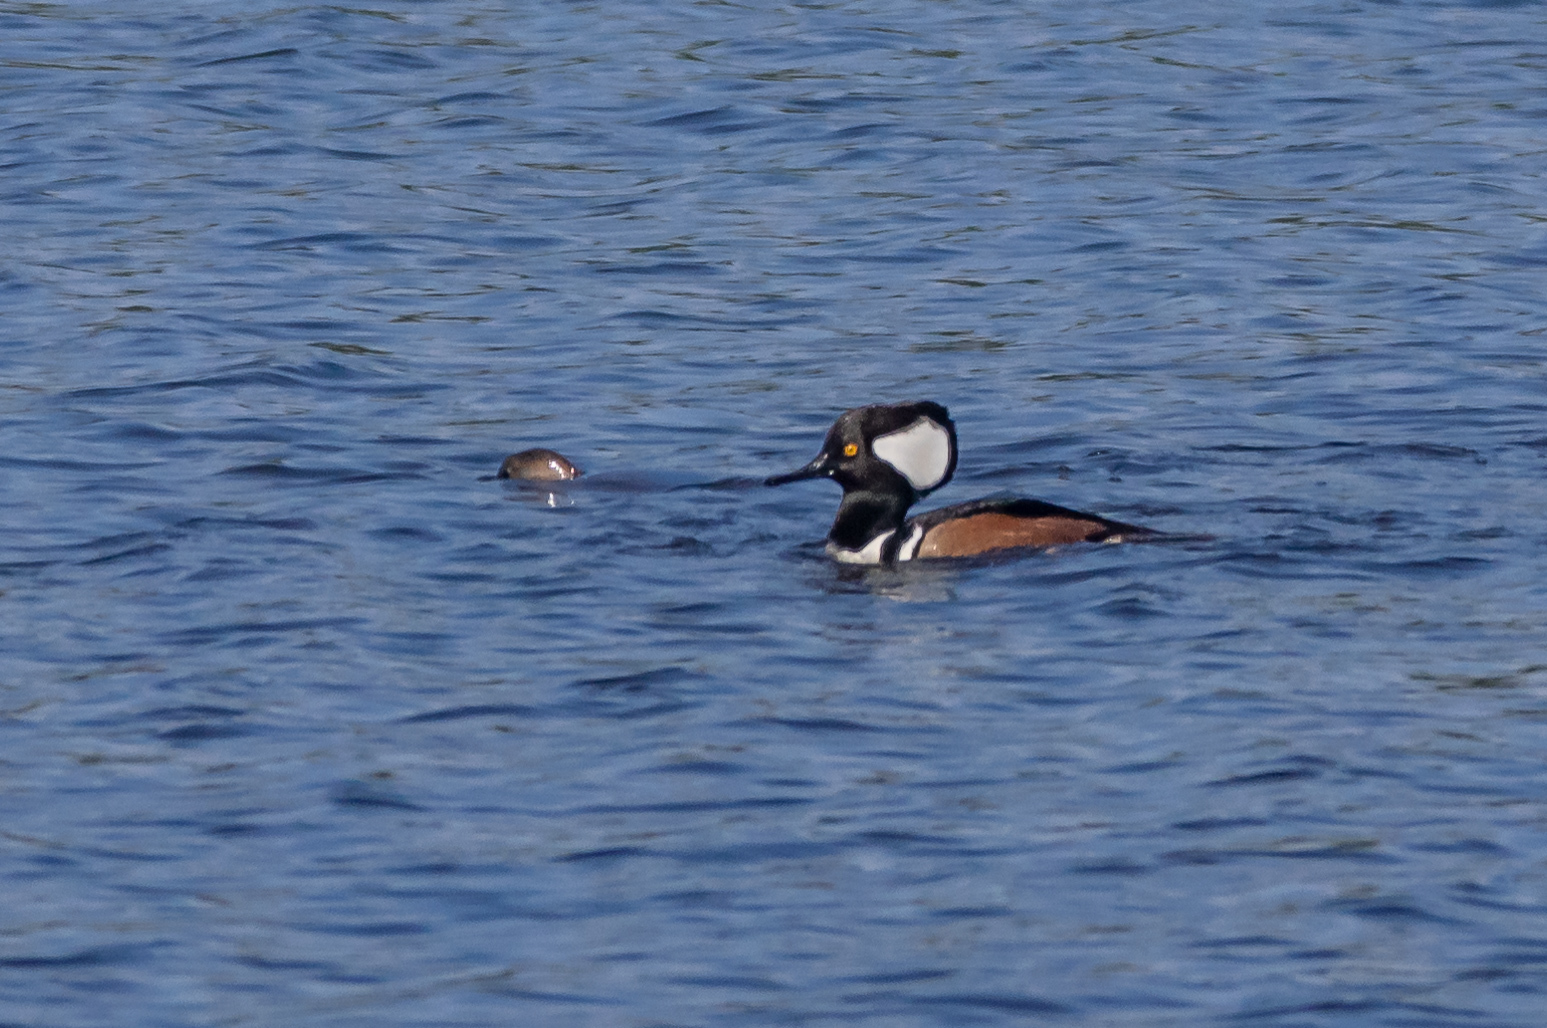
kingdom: Animalia
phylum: Chordata
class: Aves
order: Anseriformes
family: Anatidae
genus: Lophodytes
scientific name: Lophodytes cucullatus
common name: Hooded merganser
